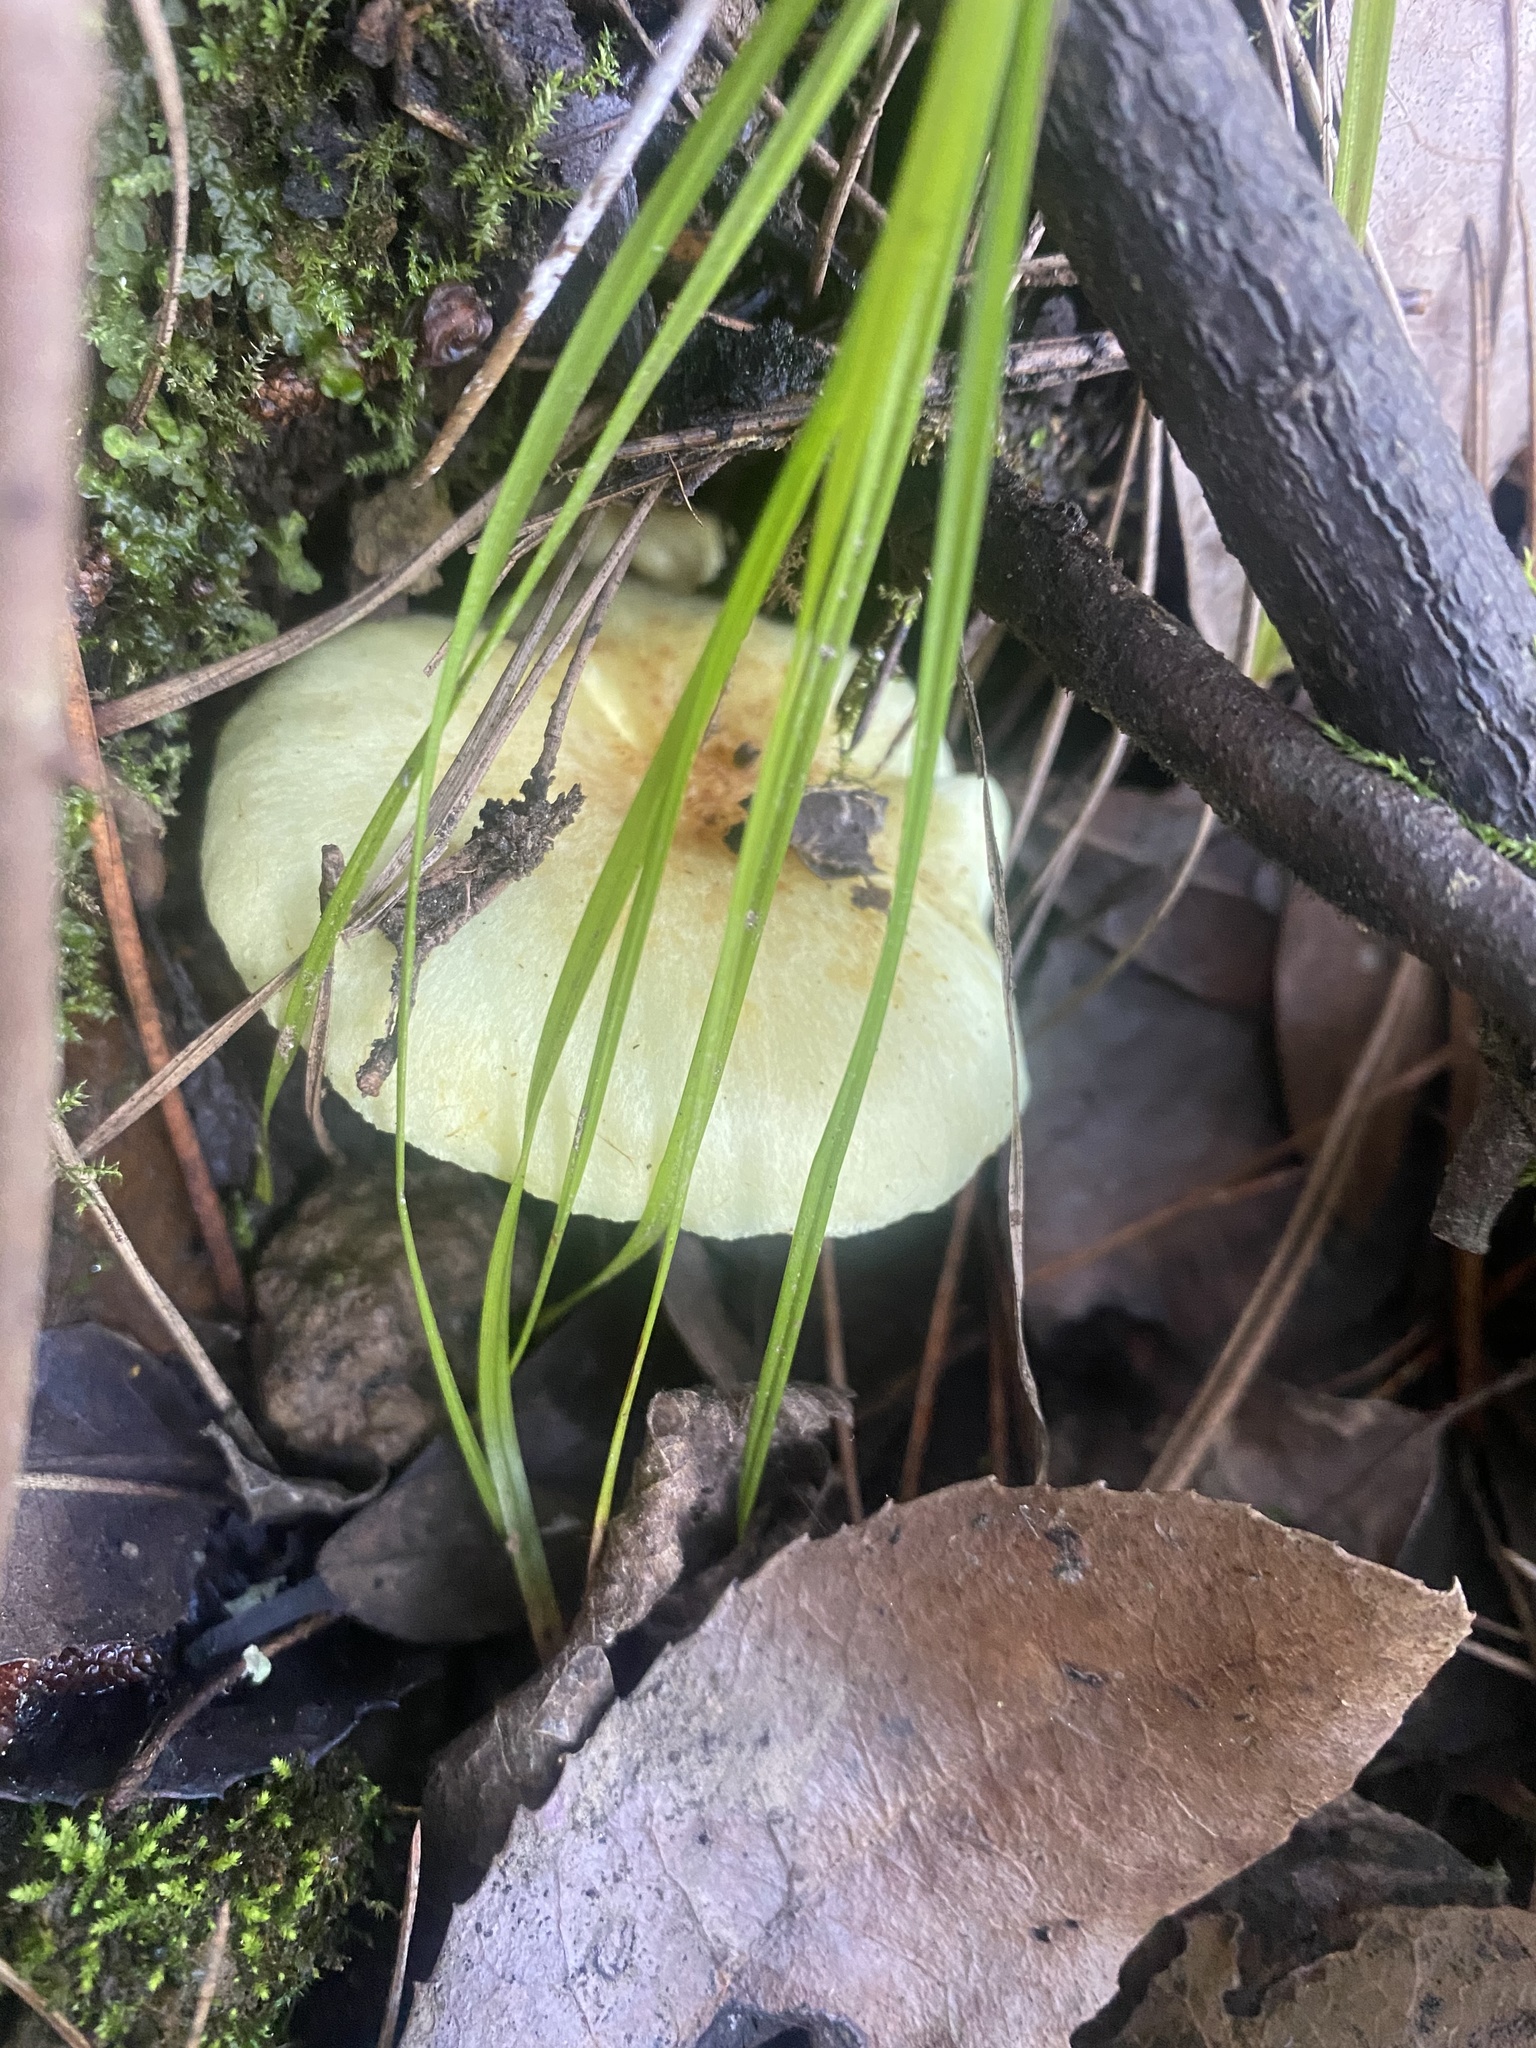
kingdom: Fungi
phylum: Basidiomycota
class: Agaricomycetes
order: Agaricales
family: Strophariaceae
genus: Hypholoma
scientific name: Hypholoma fasciculare
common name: Sulphur tuft
